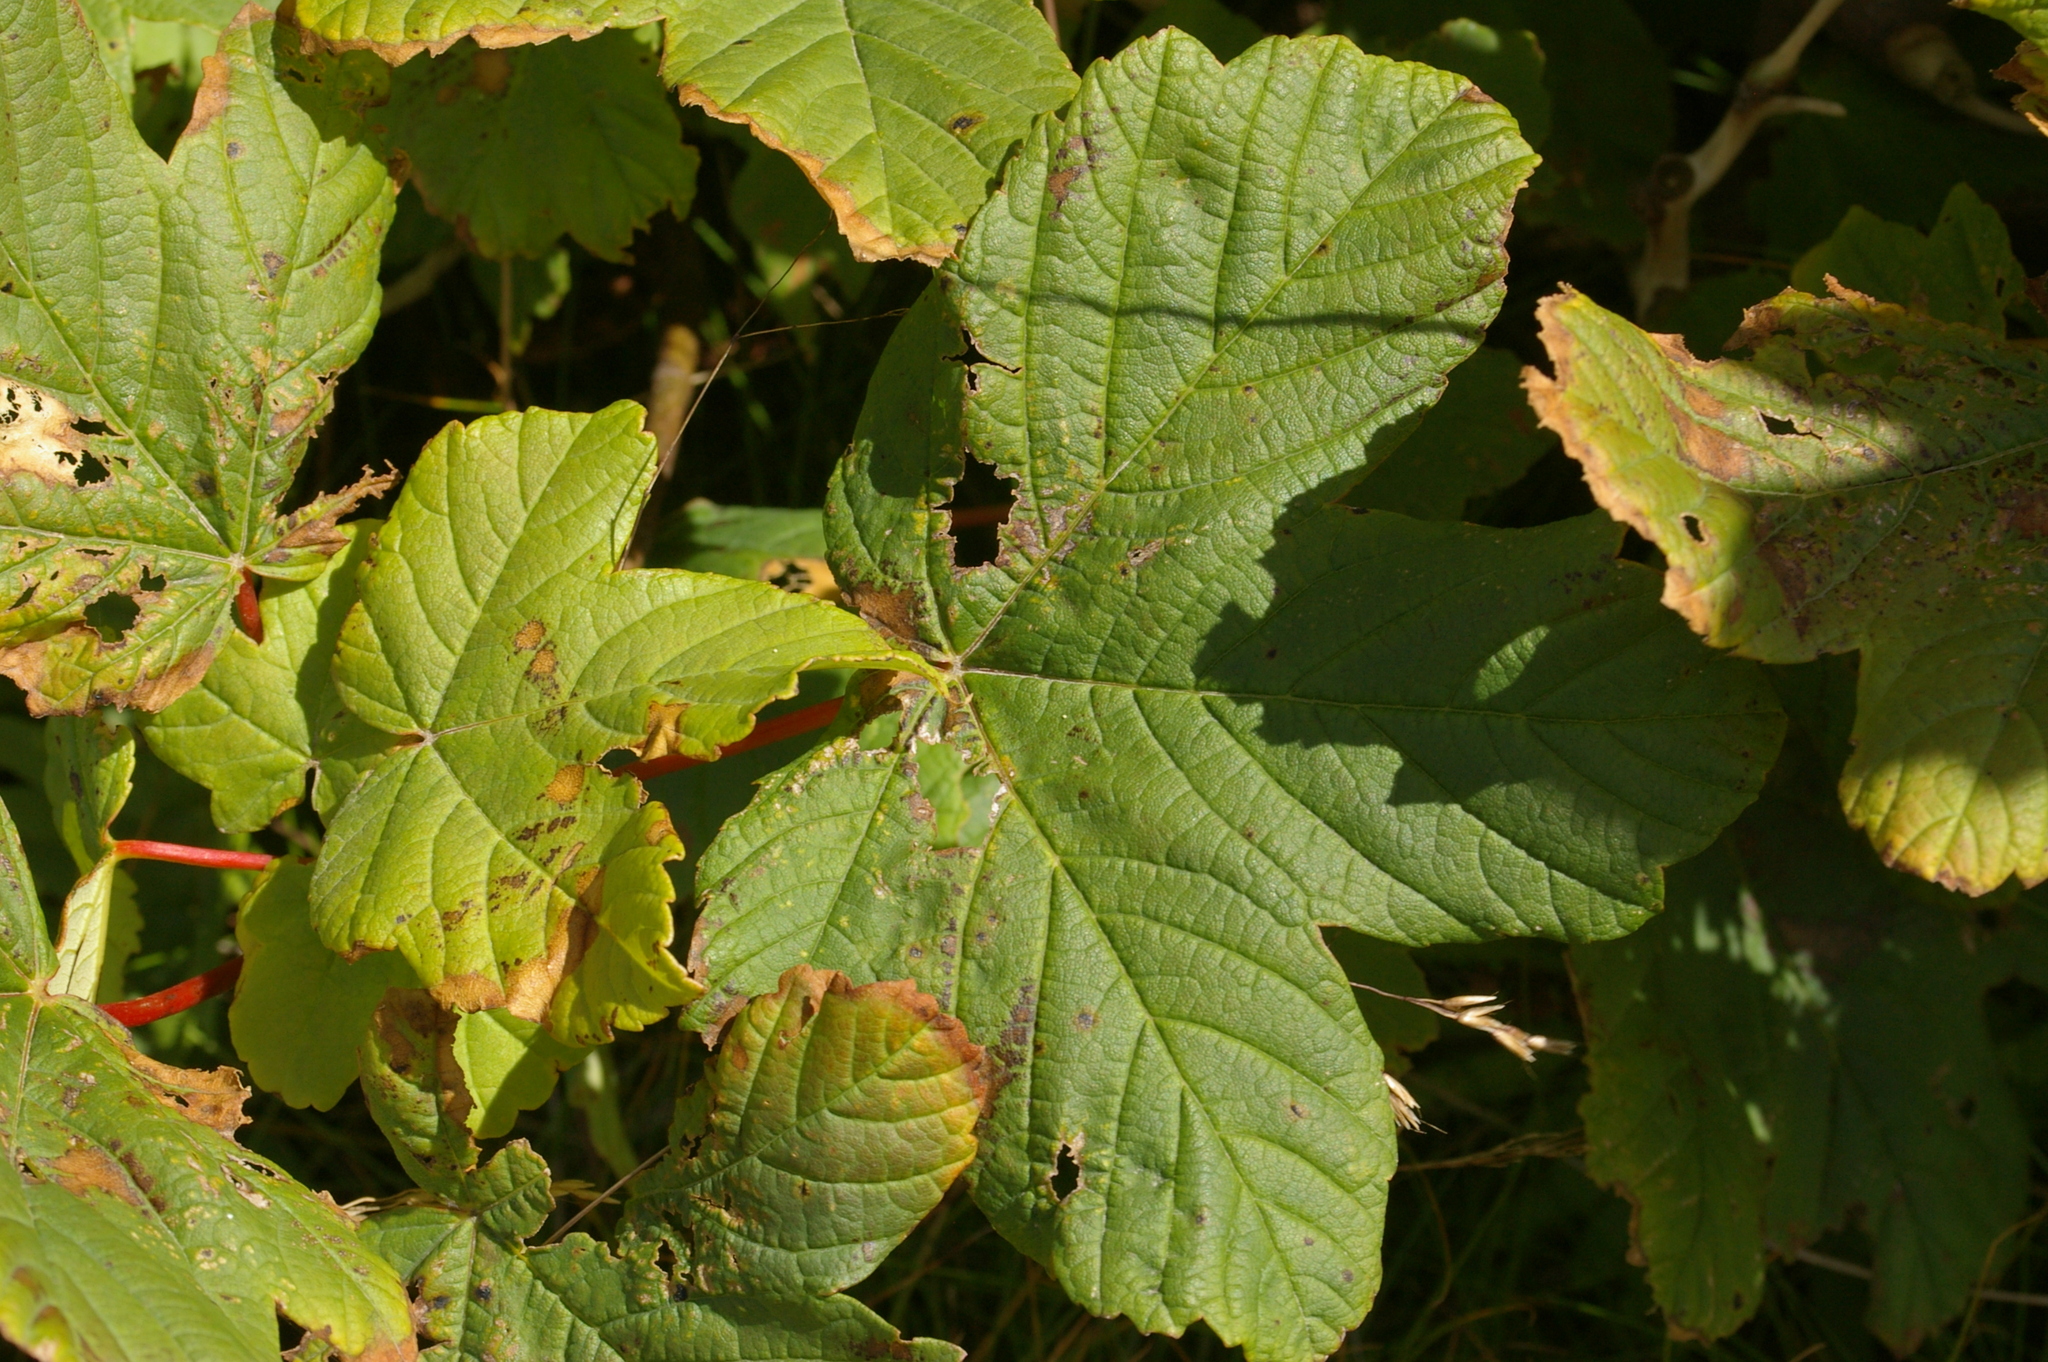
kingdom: Plantae
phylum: Tracheophyta
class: Magnoliopsida
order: Sapindales
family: Sapindaceae
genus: Acer
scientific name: Acer pseudoplatanus
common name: Sycamore
